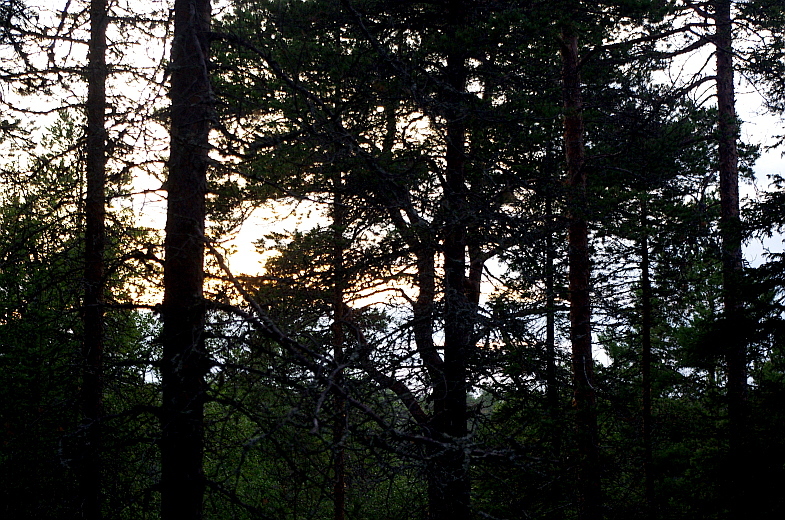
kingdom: Plantae
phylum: Tracheophyta
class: Pinopsida
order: Pinales
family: Pinaceae
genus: Pinus
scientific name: Pinus sylvestris
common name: Scots pine
